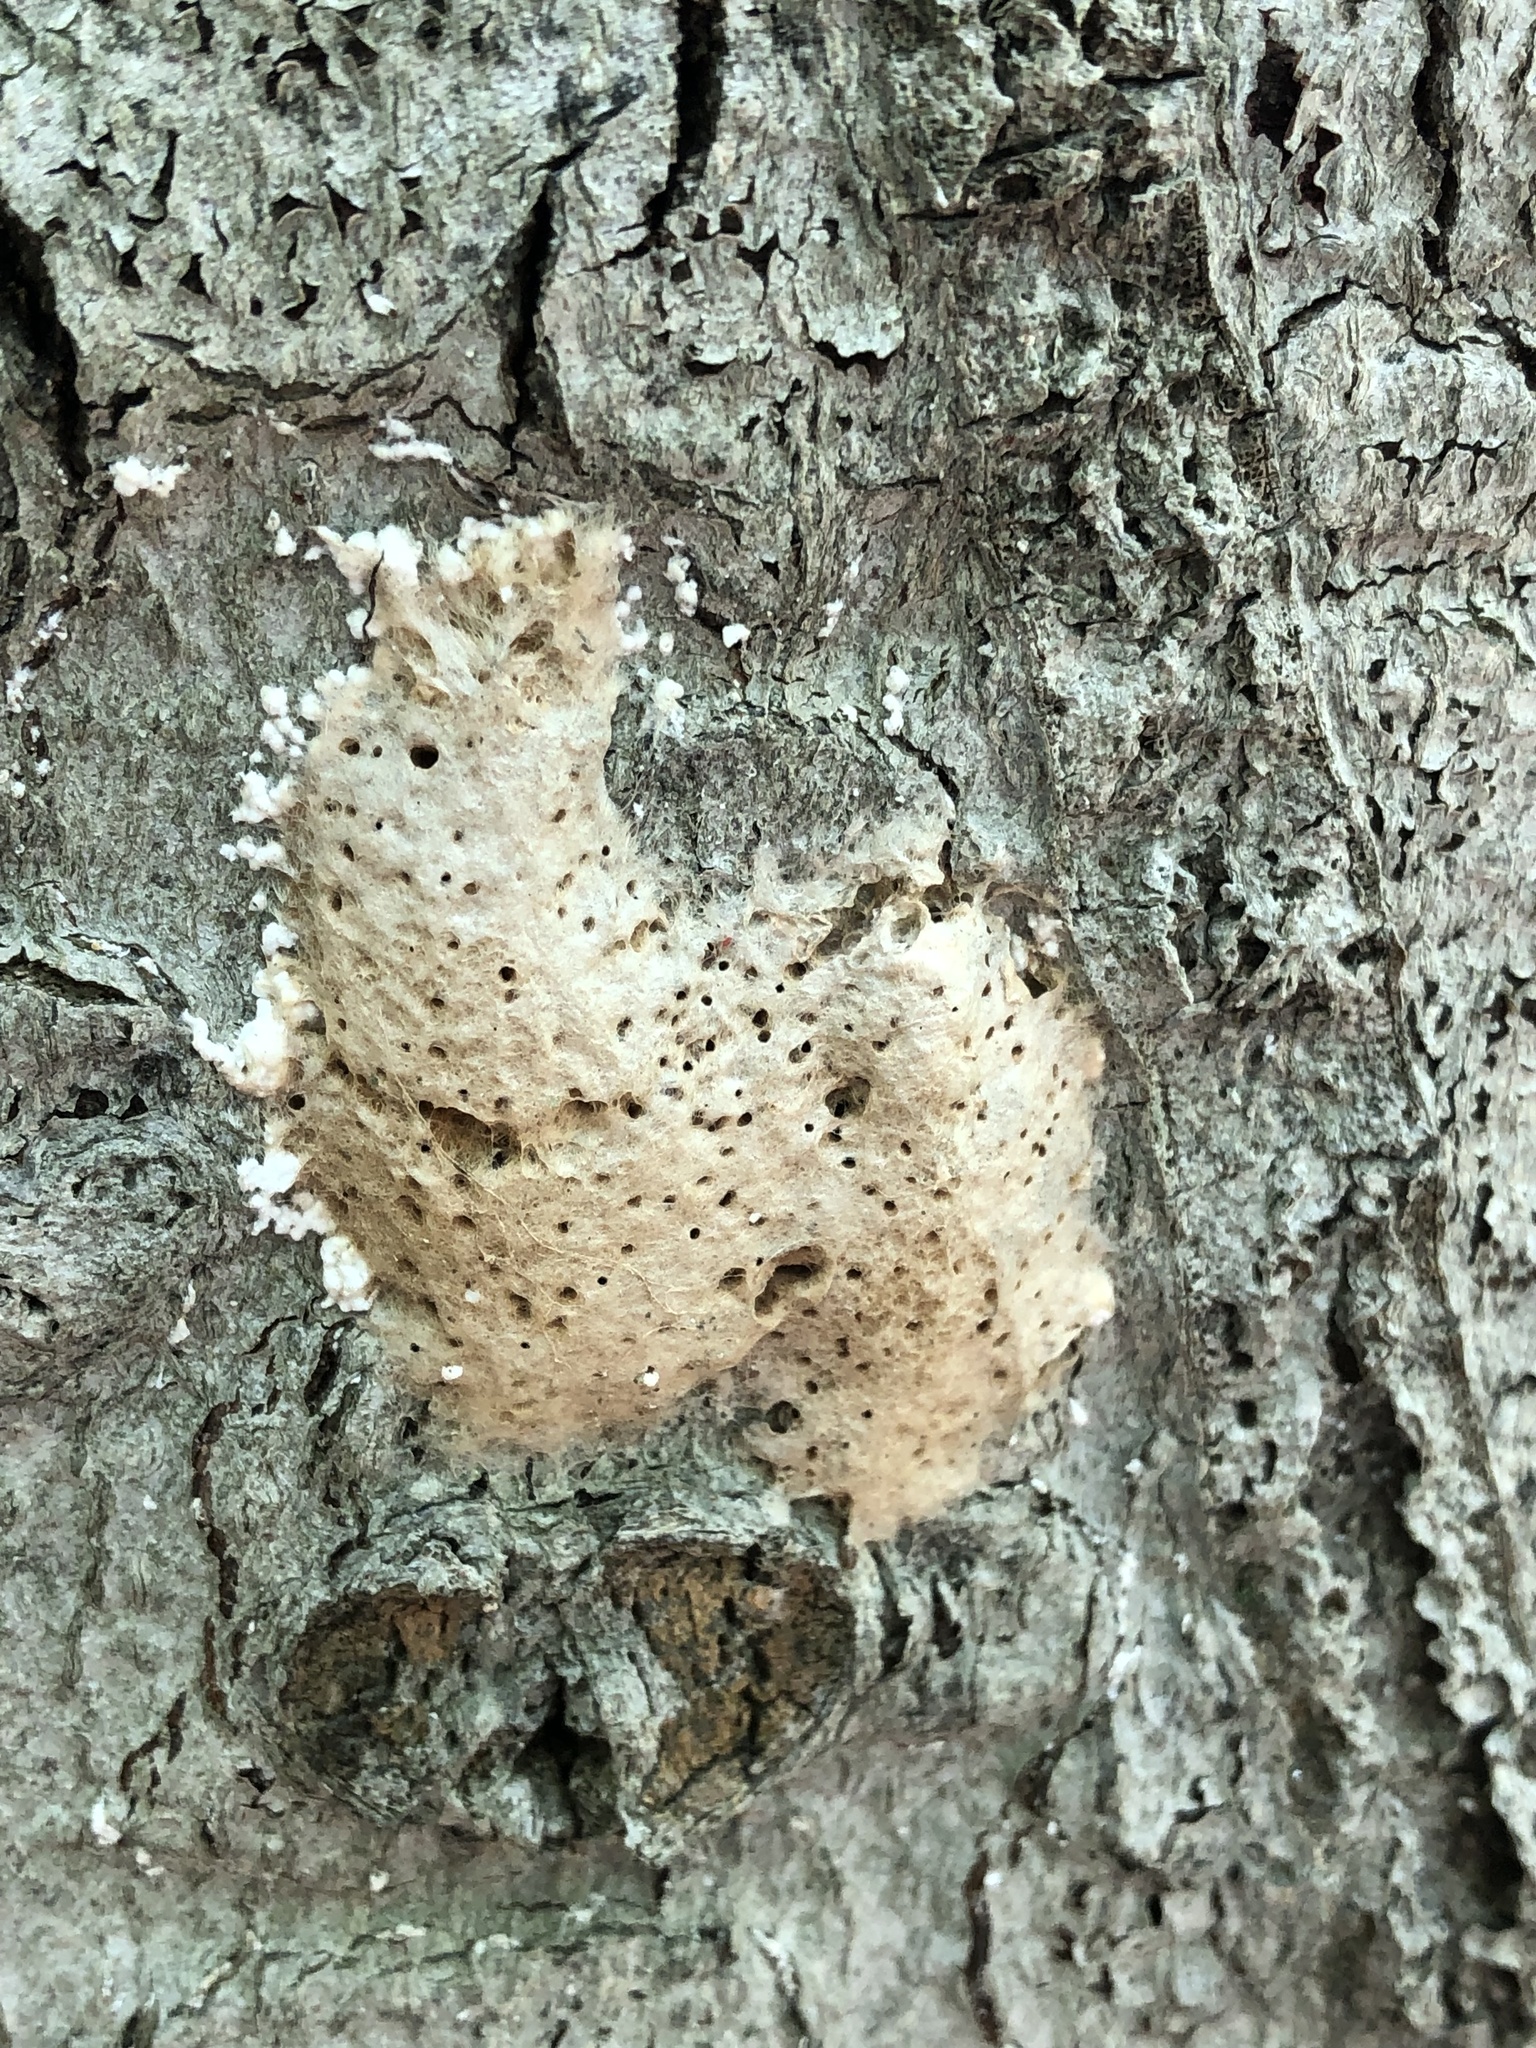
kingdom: Animalia
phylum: Arthropoda
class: Insecta
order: Lepidoptera
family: Erebidae
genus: Lymantria
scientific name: Lymantria dispar
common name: Gypsy moth
